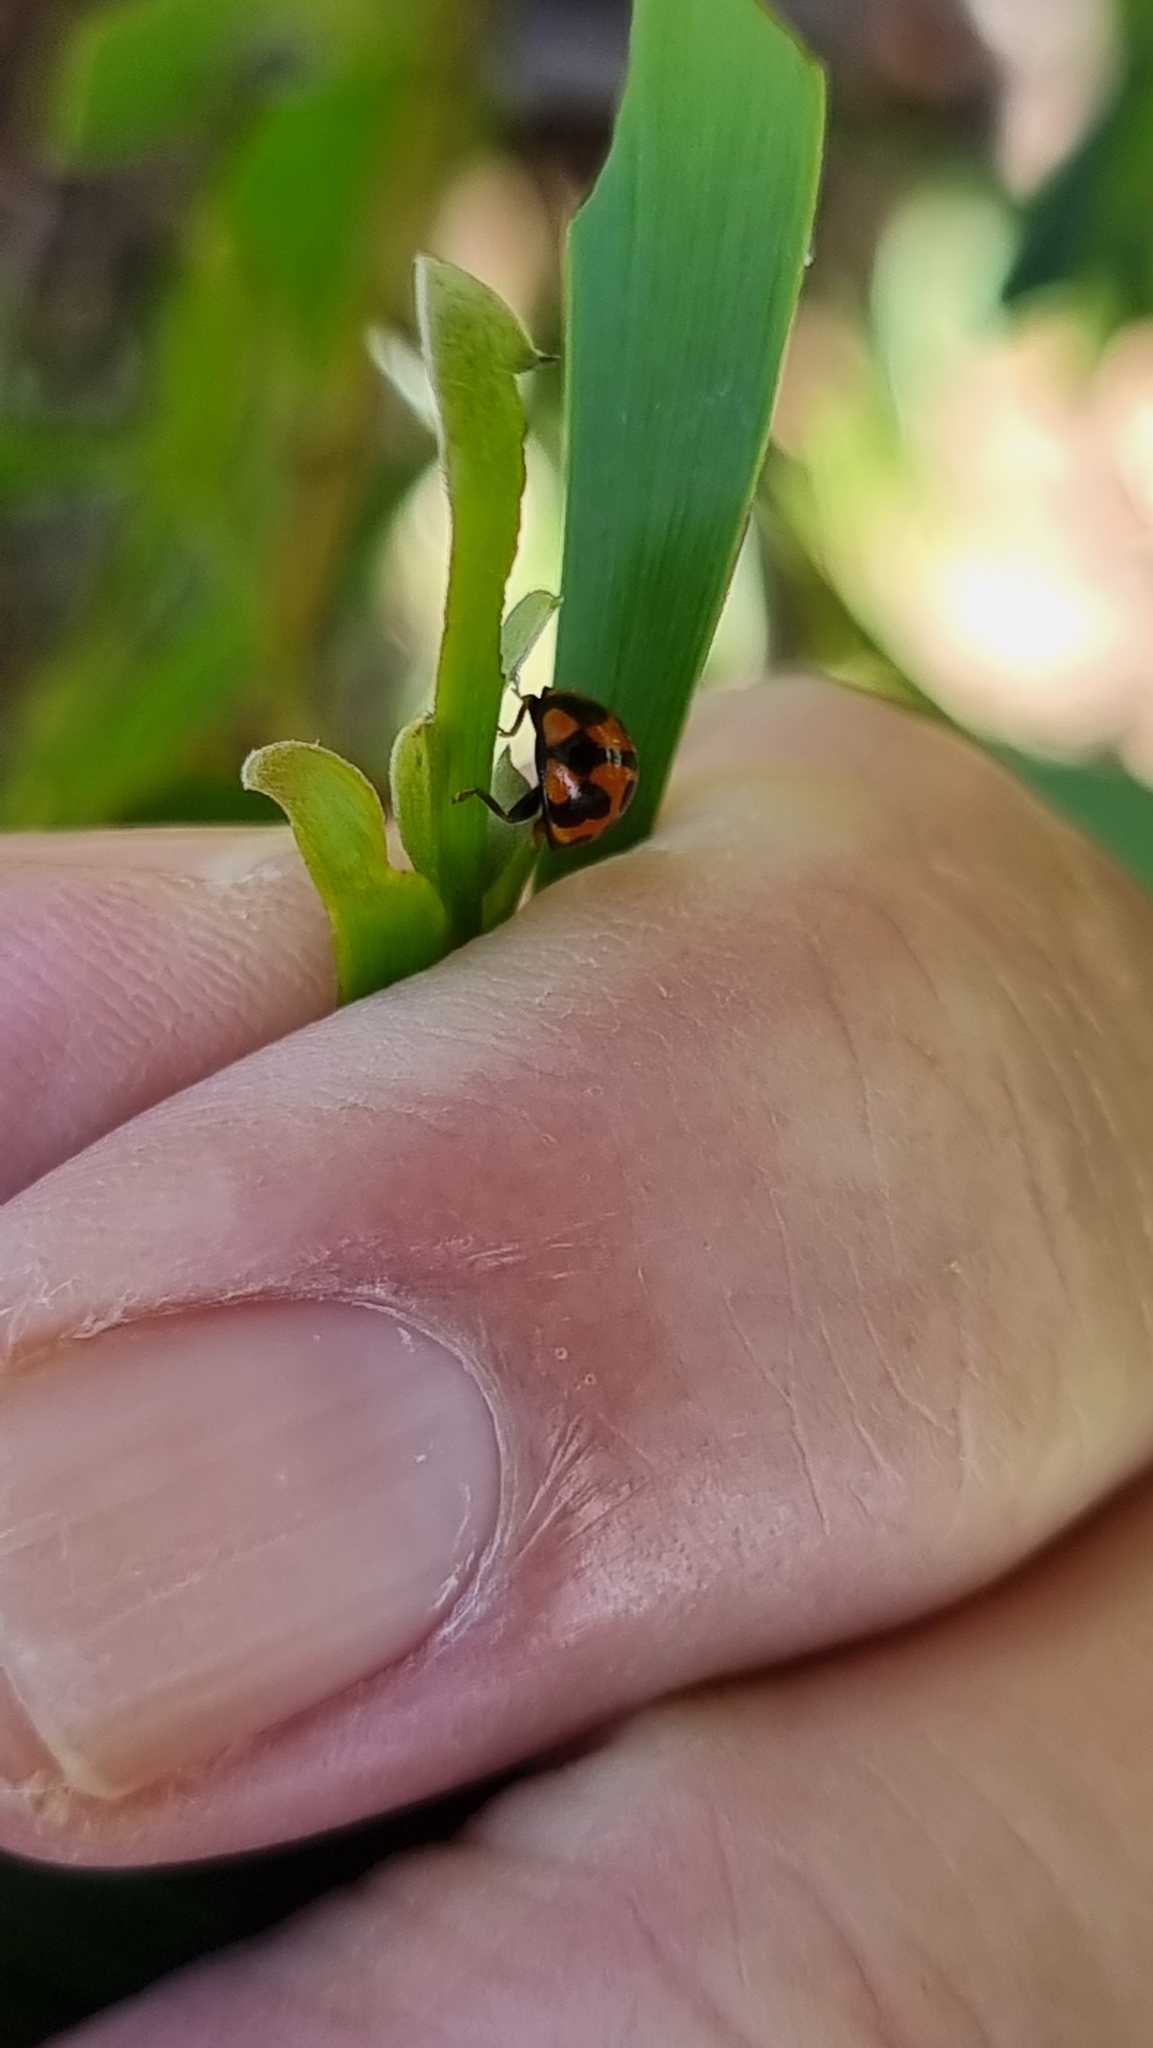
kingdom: Animalia
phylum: Arthropoda
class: Insecta
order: Coleoptera
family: Coccinellidae
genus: Coelophora
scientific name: Coelophora inaequalis
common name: Common australian lady beetle
